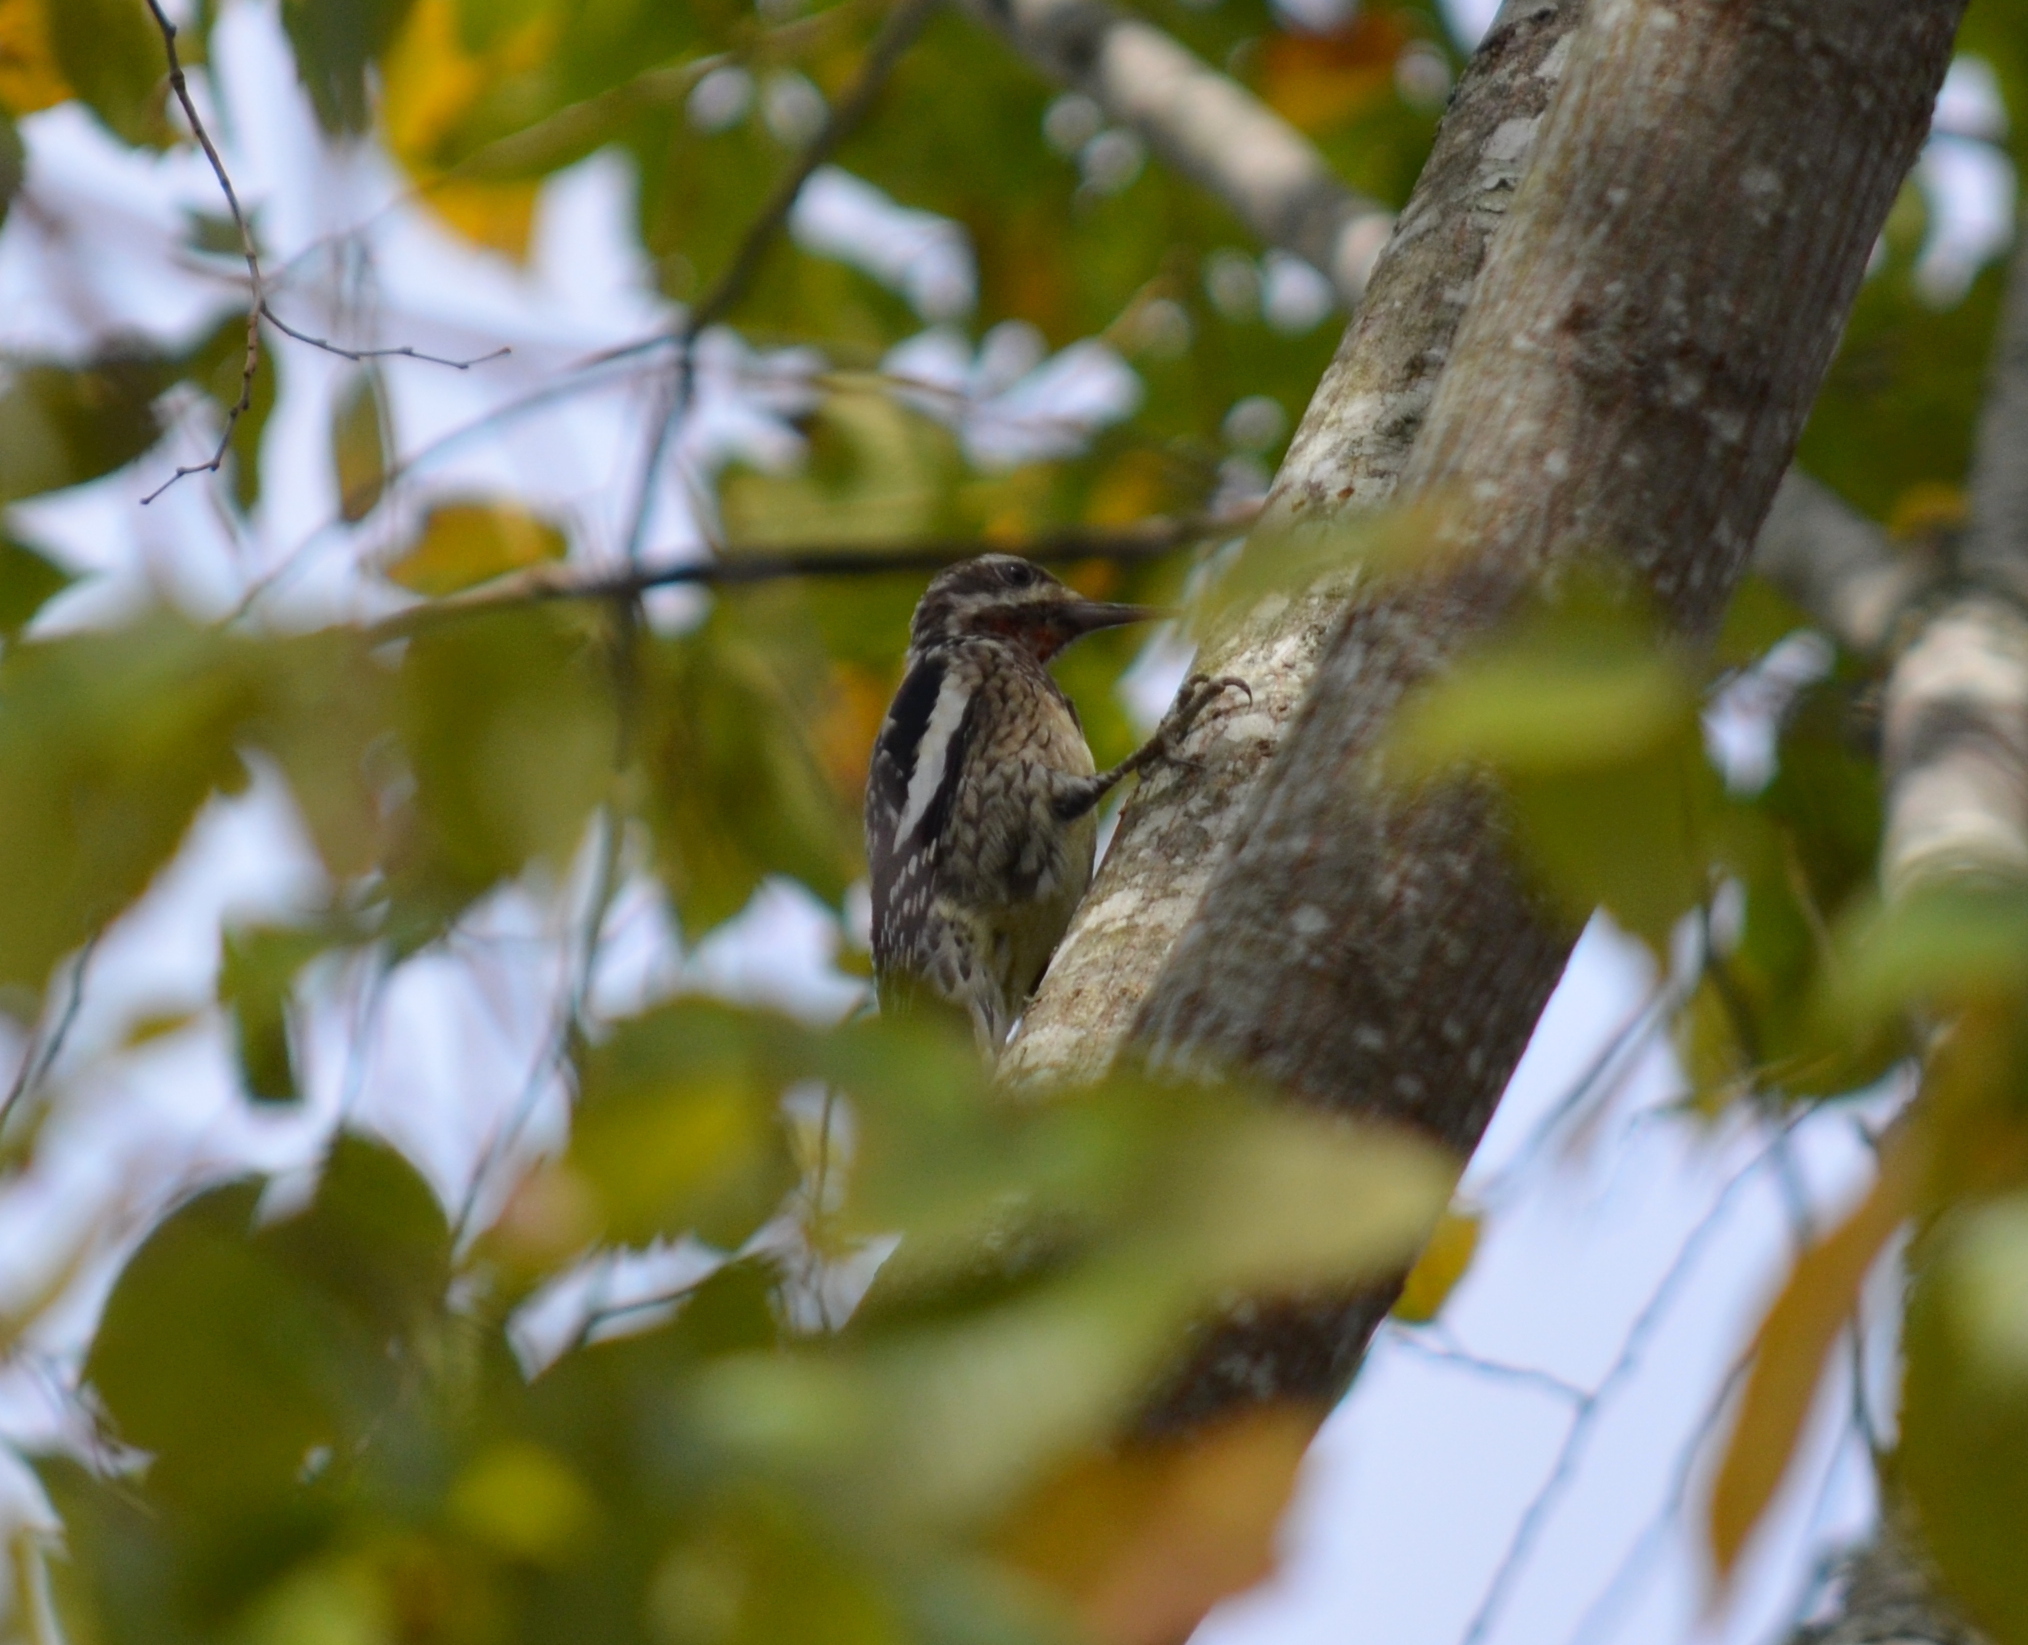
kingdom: Animalia
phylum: Chordata
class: Aves
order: Piciformes
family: Picidae
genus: Sphyrapicus
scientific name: Sphyrapicus varius
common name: Yellow-bellied sapsucker
